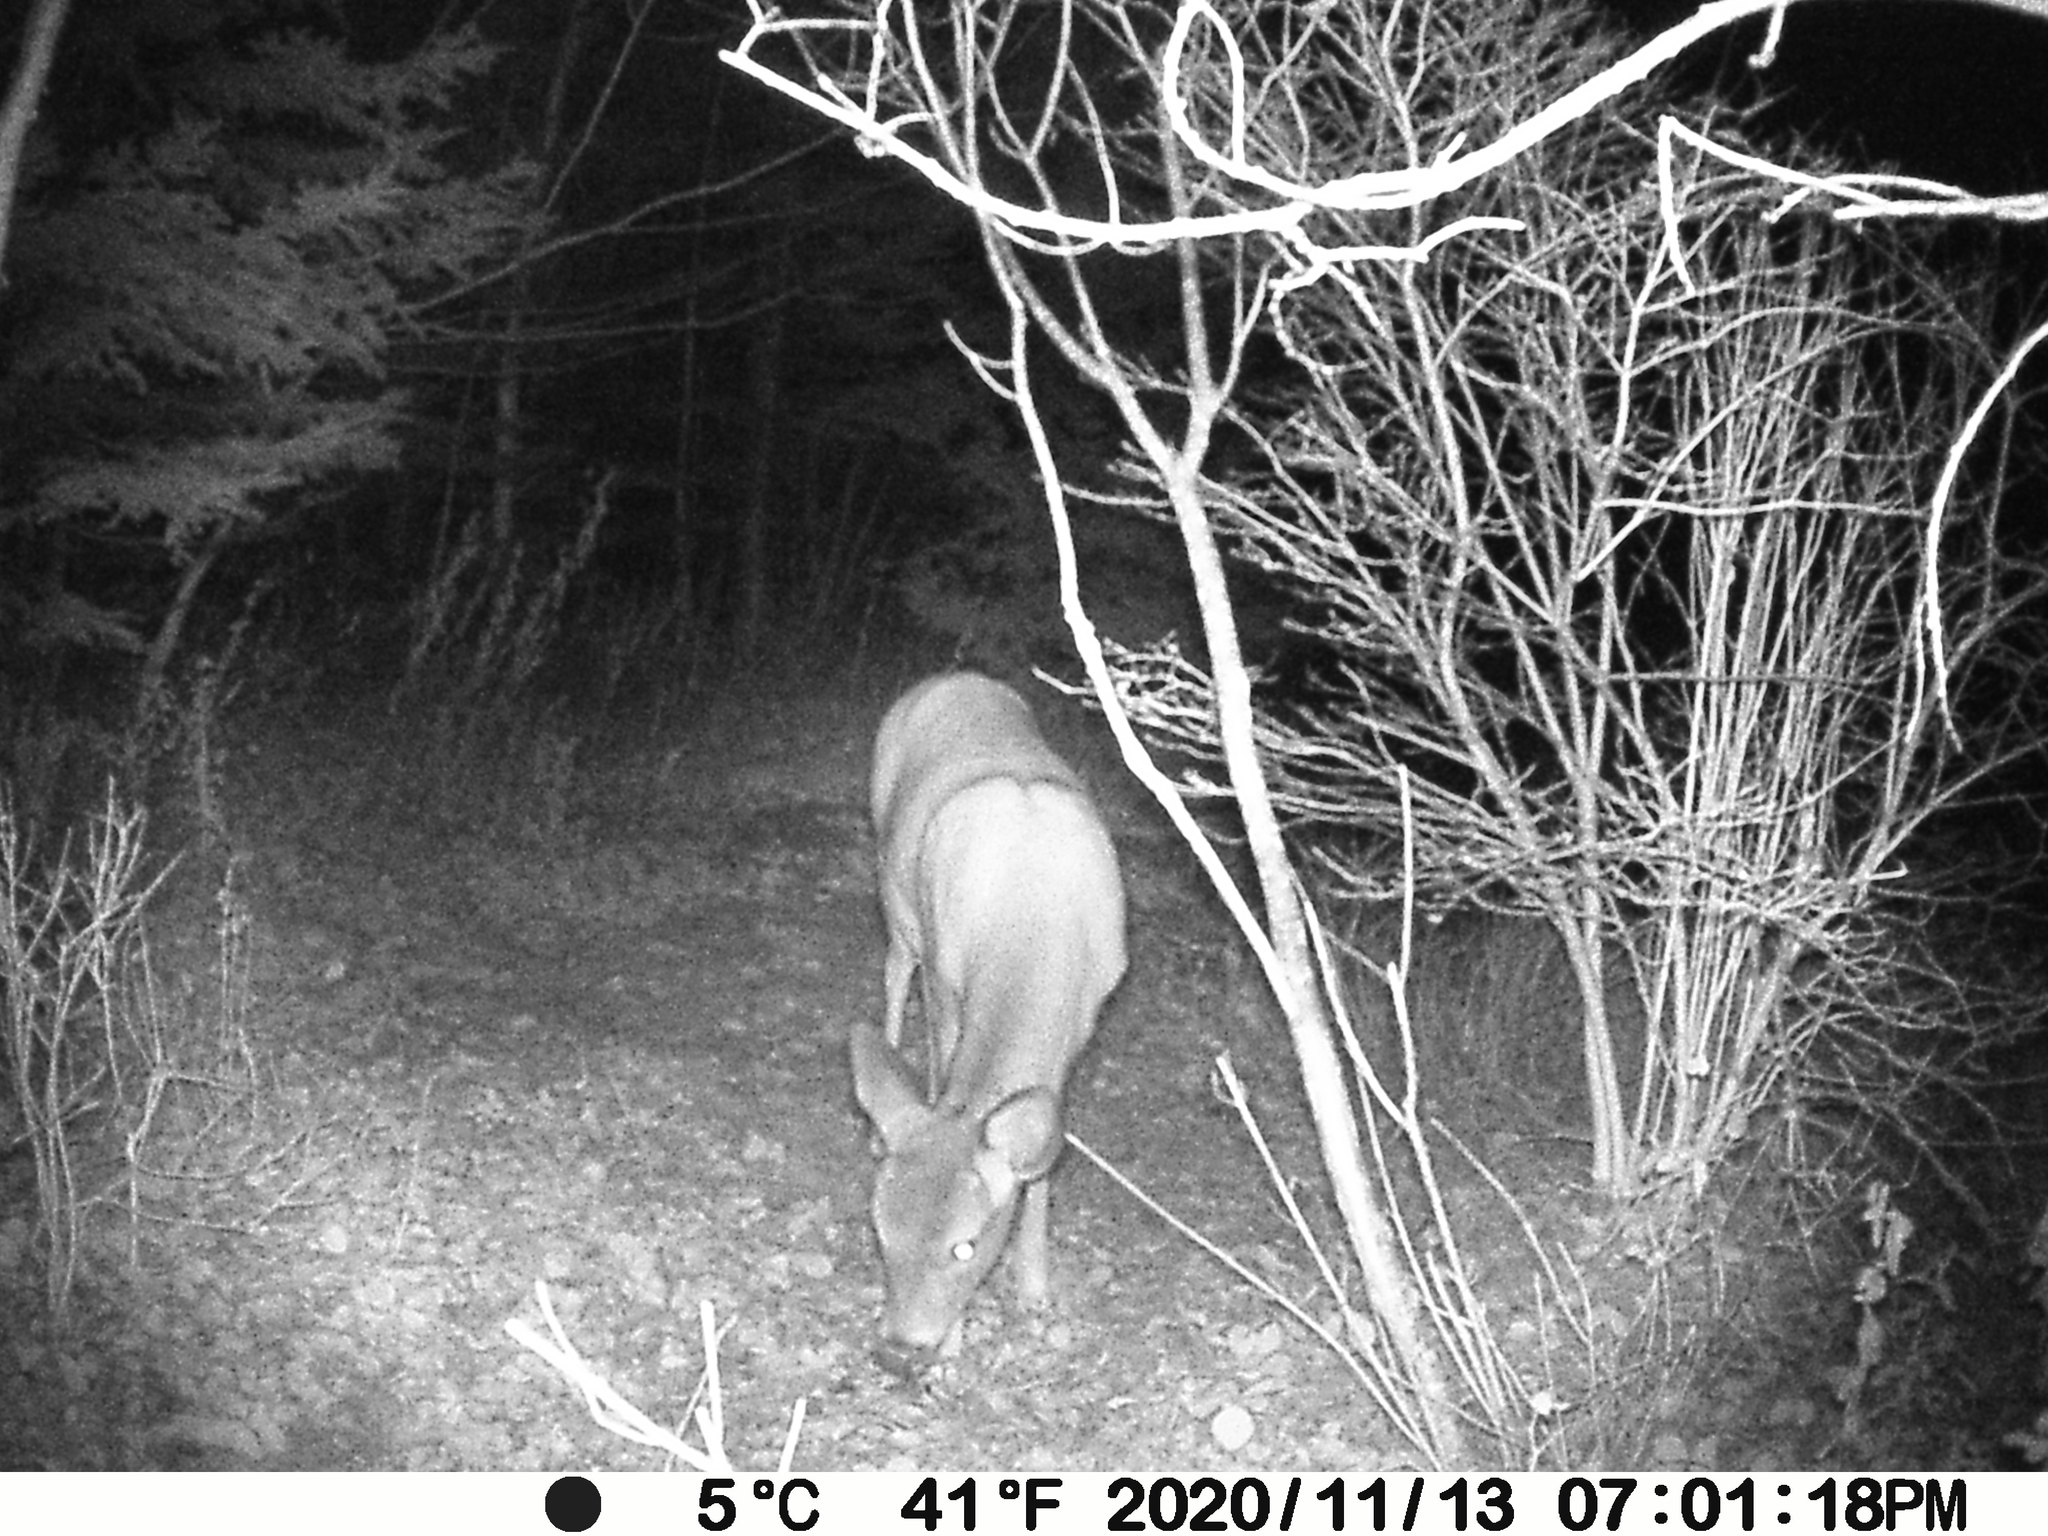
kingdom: Animalia
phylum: Chordata
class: Mammalia
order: Artiodactyla
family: Cervidae
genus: Odocoileus
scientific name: Odocoileus virginianus
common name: White-tailed deer
